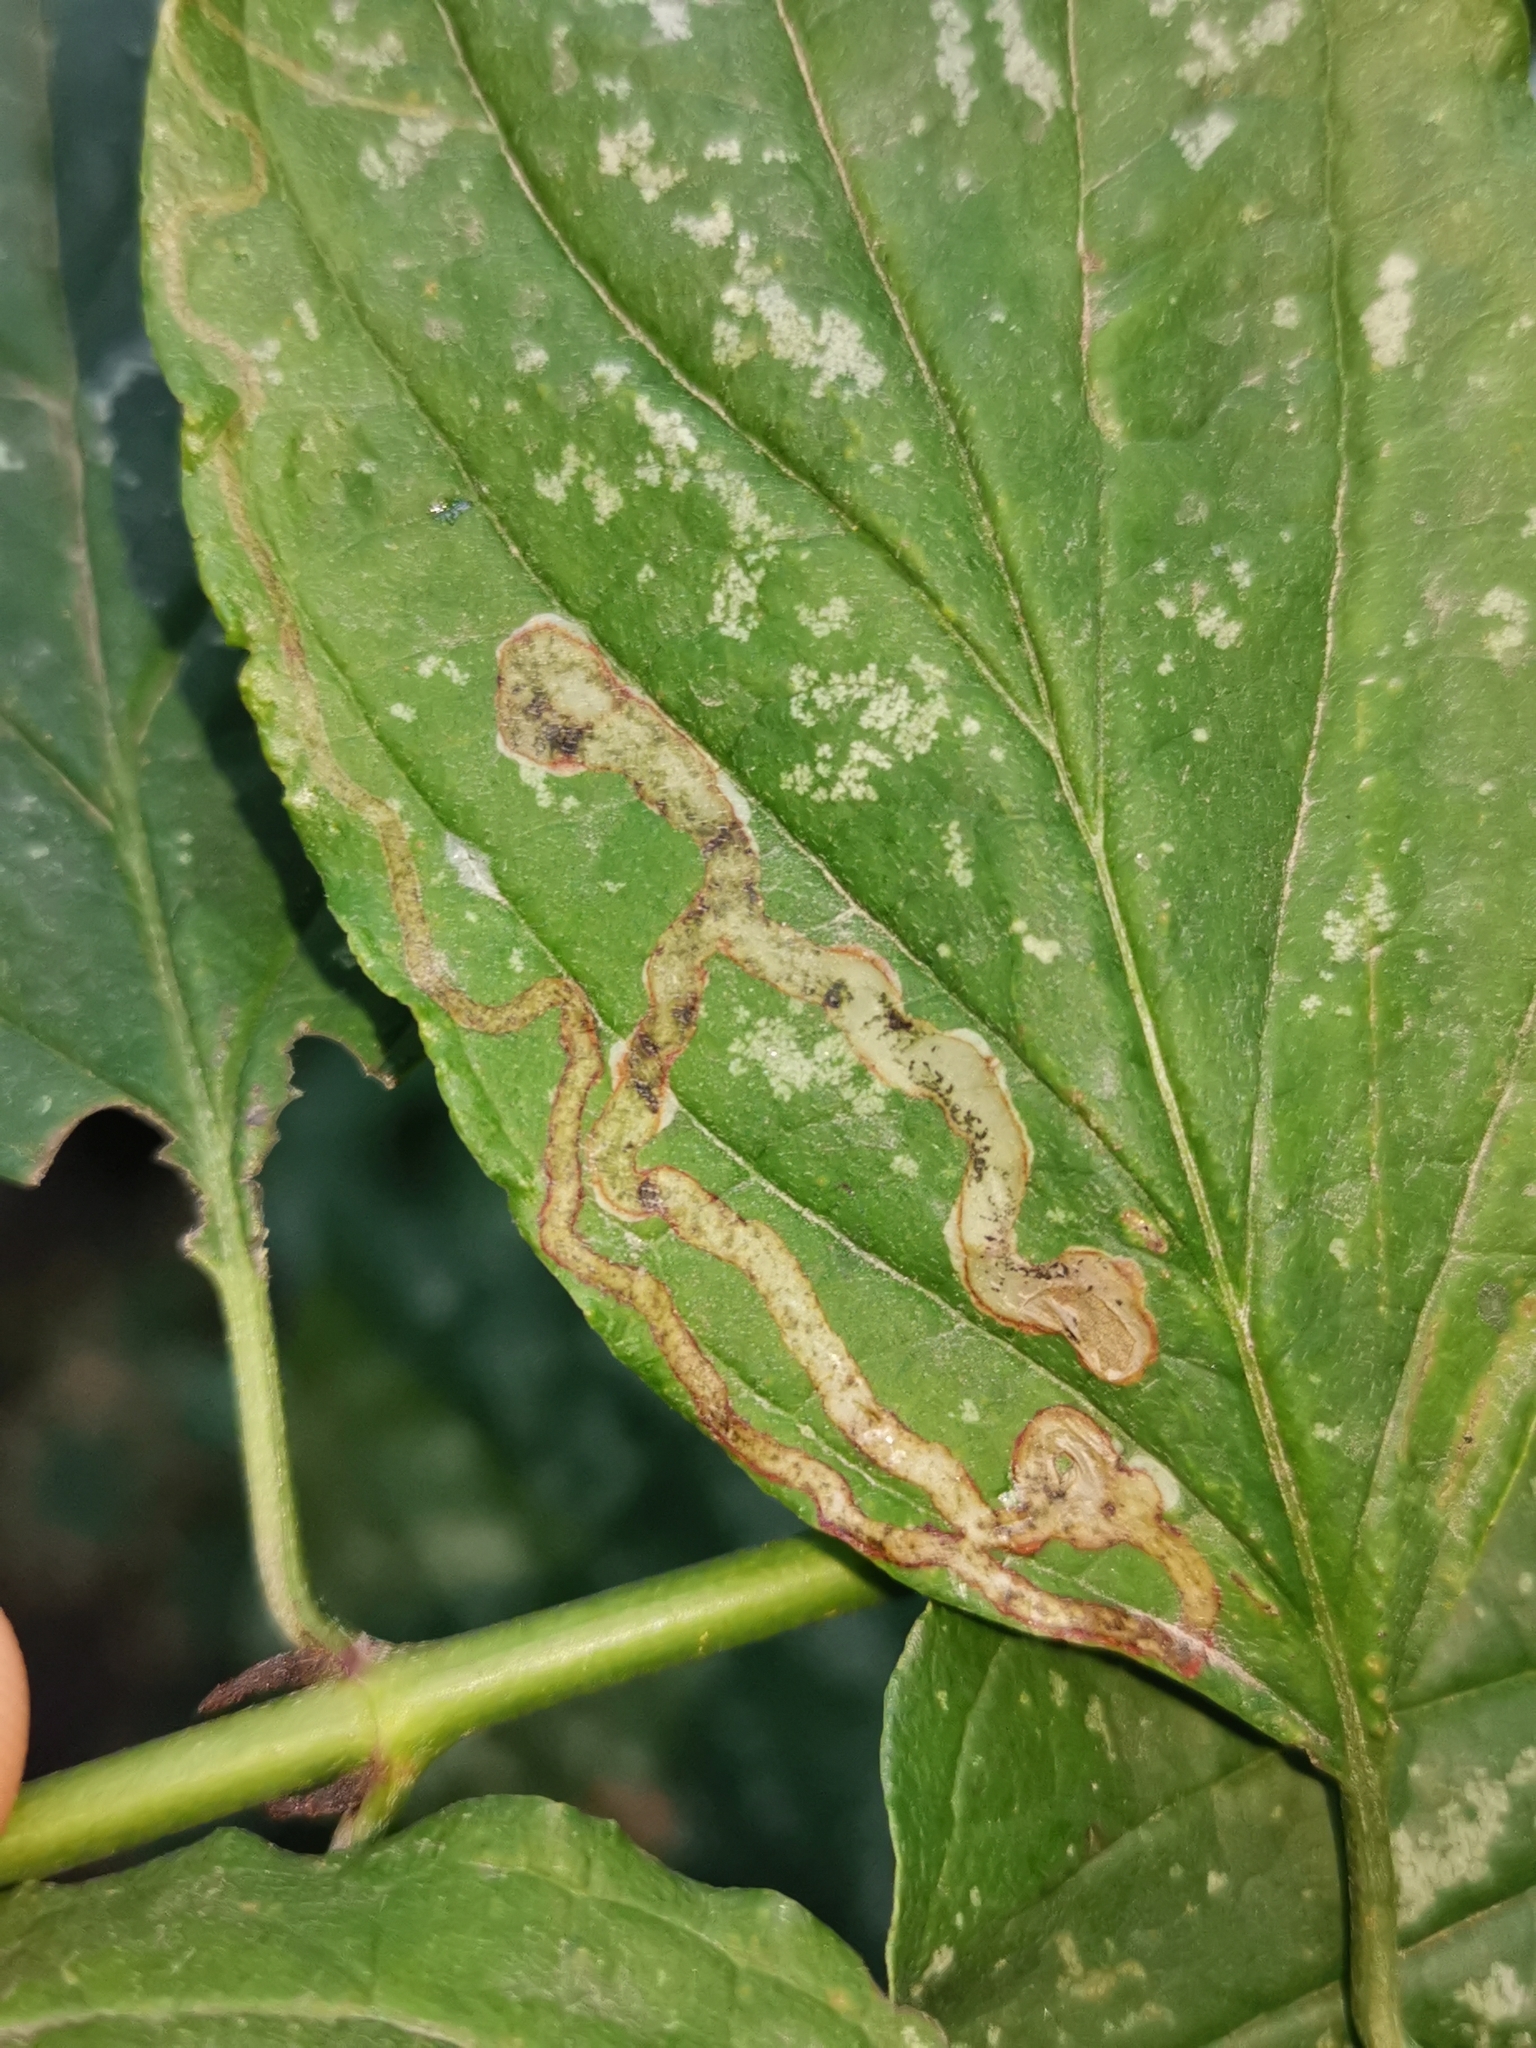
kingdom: Animalia
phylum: Arthropoda
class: Insecta
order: Diptera
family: Agromyzidae
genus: Phytomyza
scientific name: Phytomyza agromyzina
